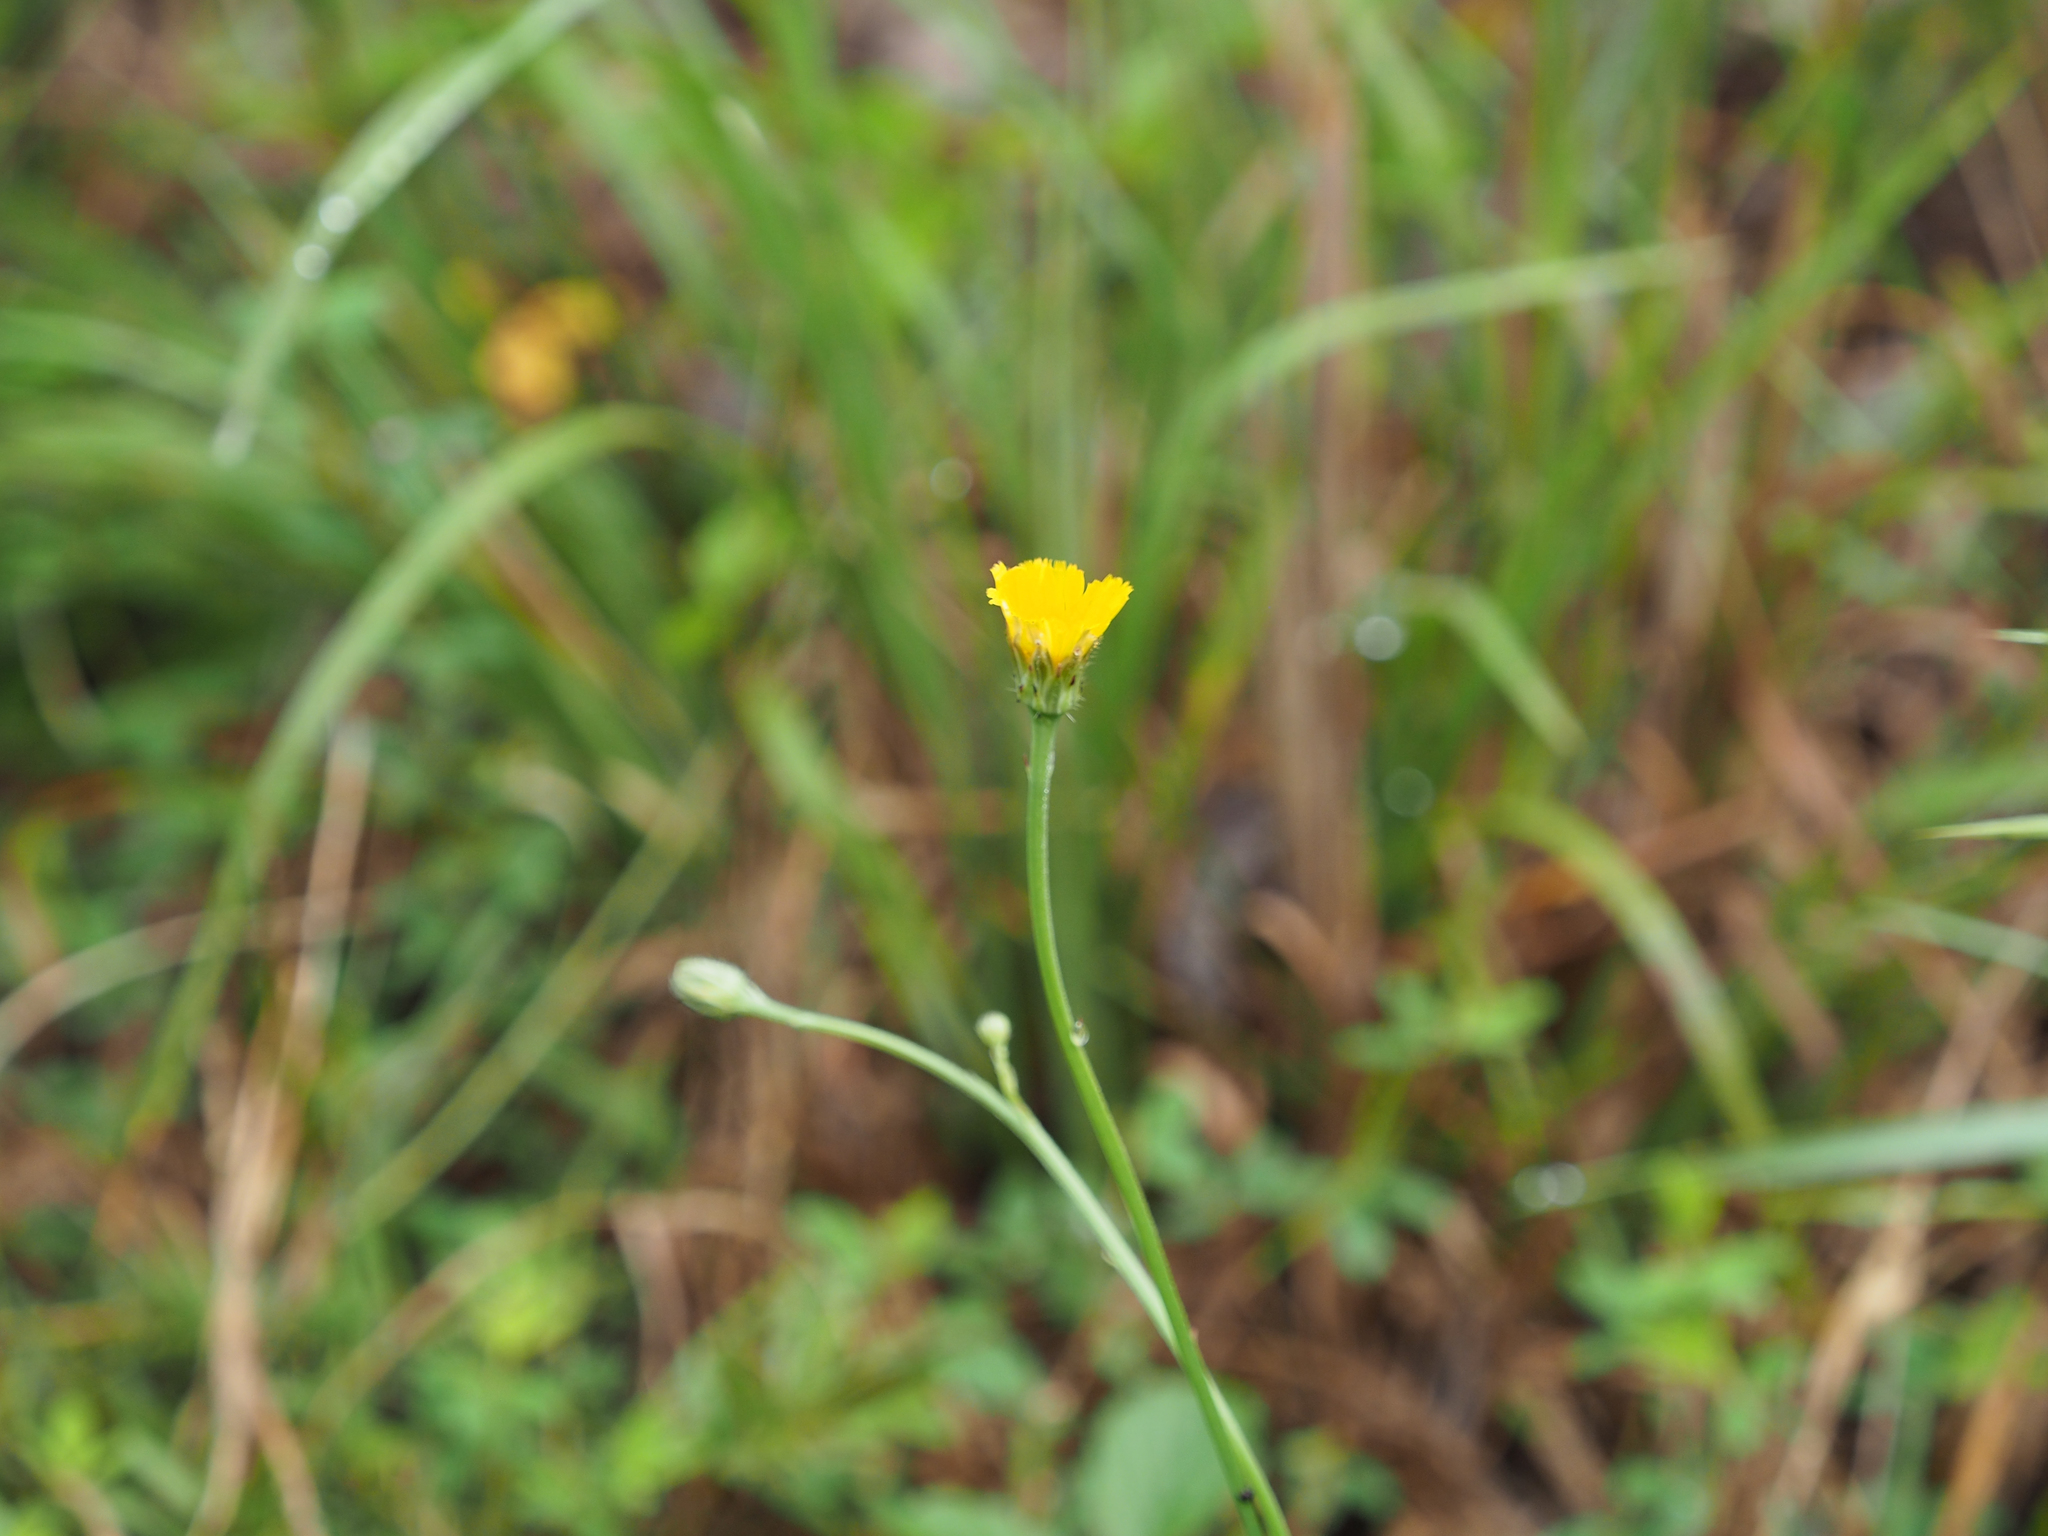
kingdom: Plantae
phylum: Tracheophyta
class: Magnoliopsida
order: Asterales
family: Asteraceae
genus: Hypochaeris
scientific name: Hypochaeris radicata
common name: Flatweed
